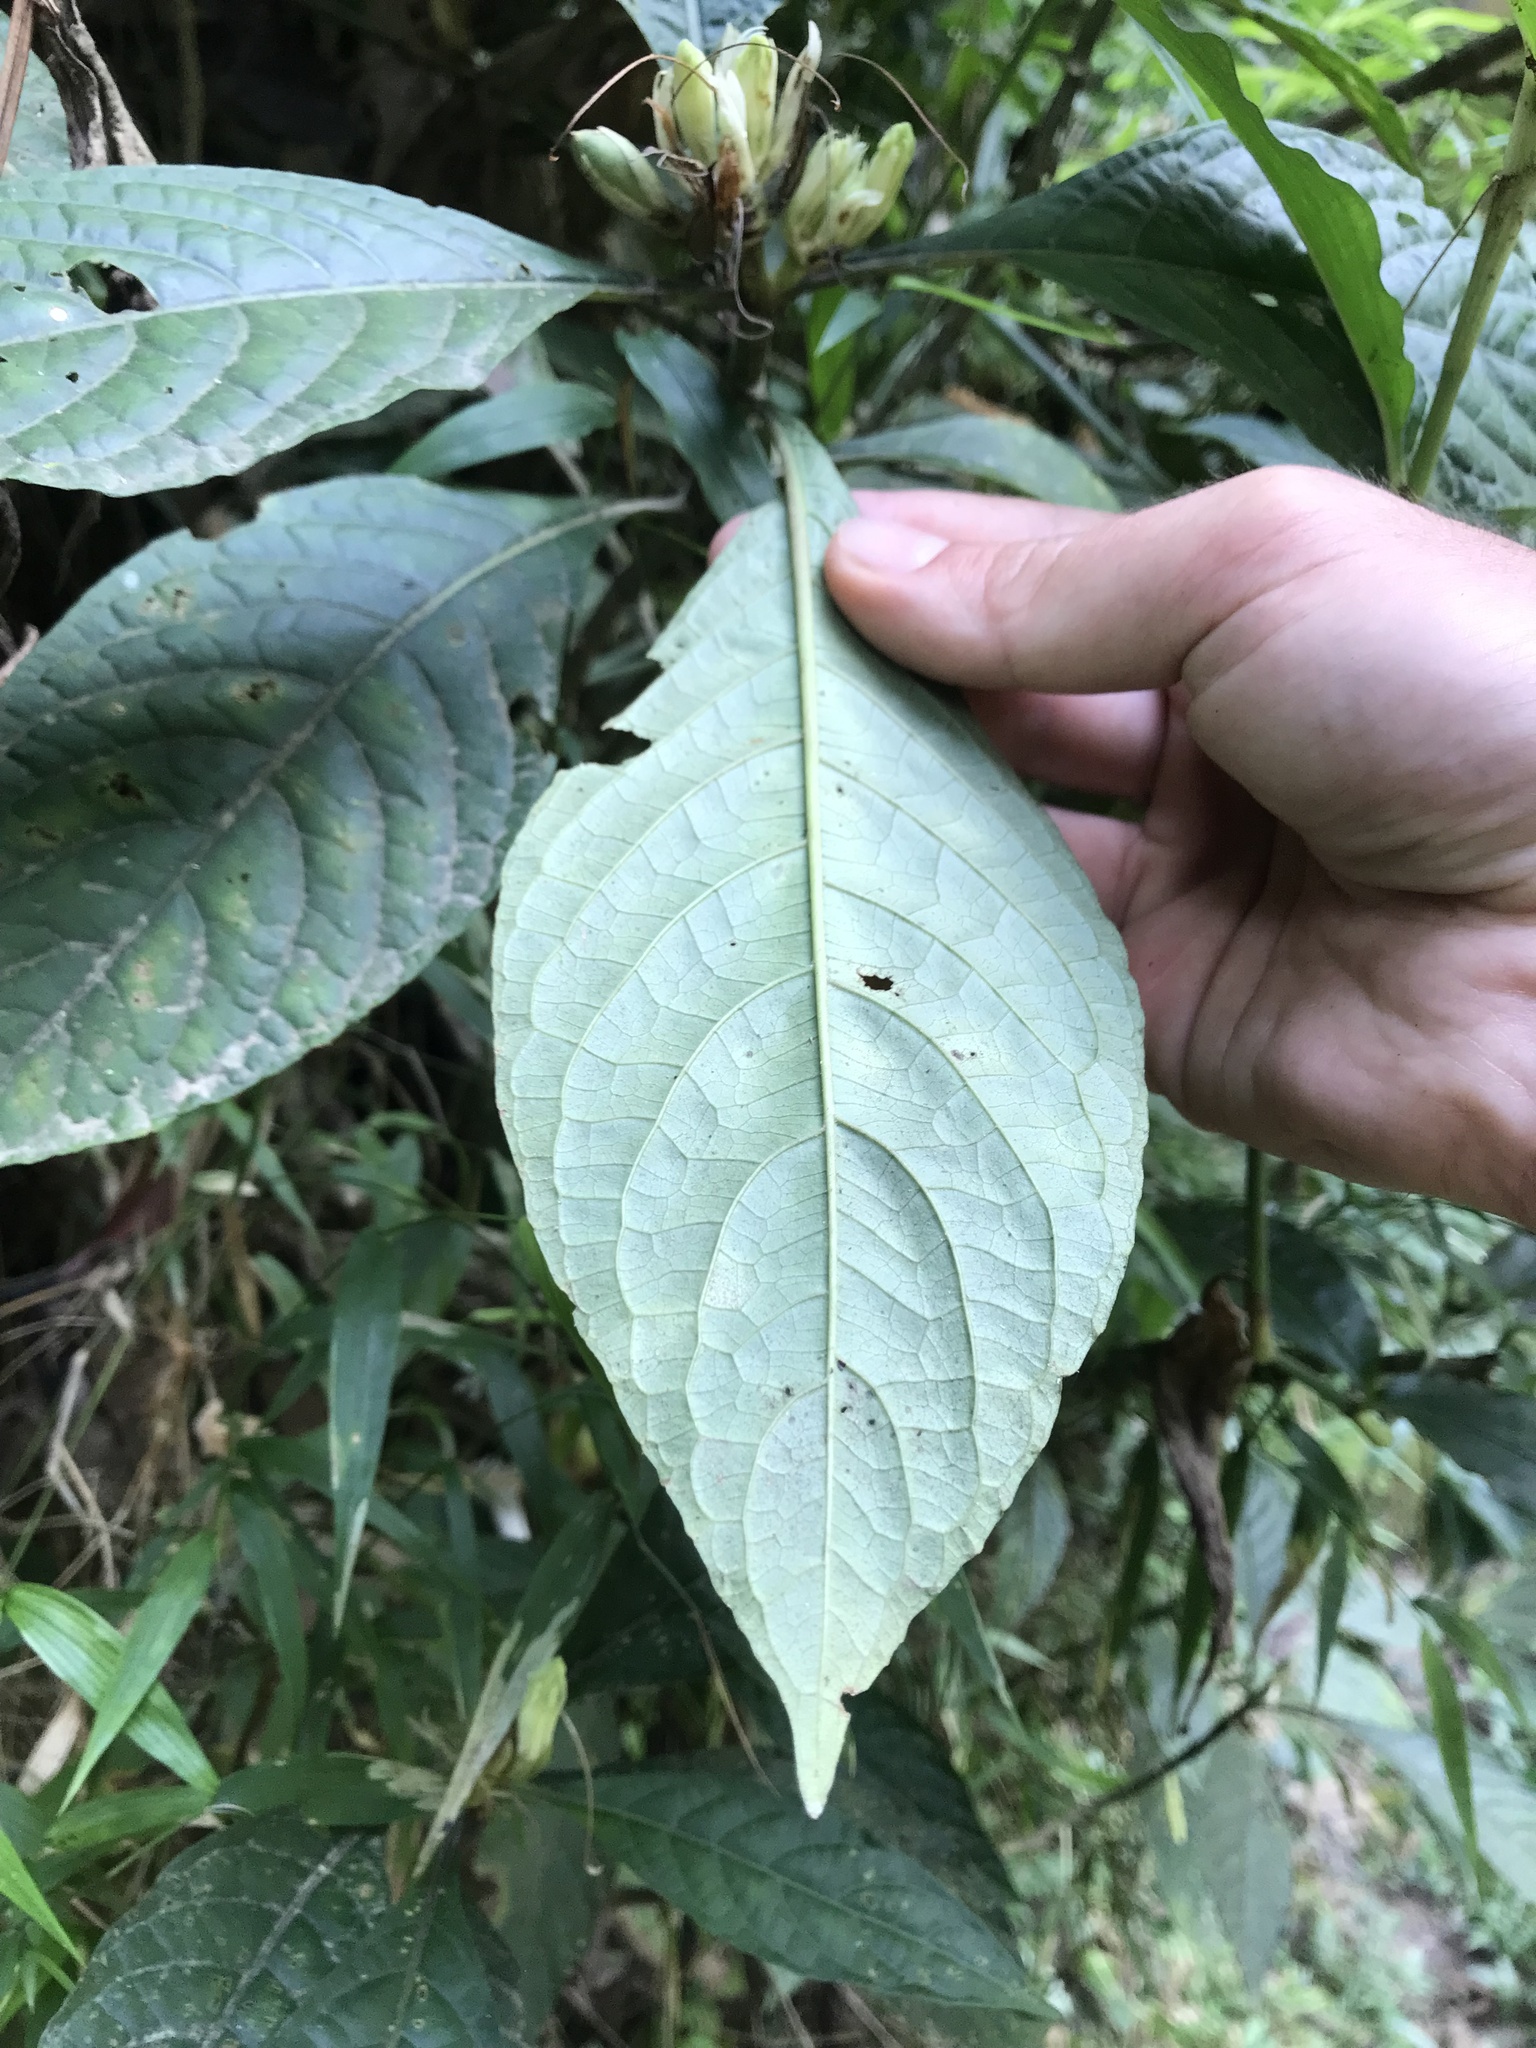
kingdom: Plantae
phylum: Tracheophyta
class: Magnoliopsida
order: Lamiales
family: Acanthaceae
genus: Ruellia
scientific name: Ruellia tubiflora
